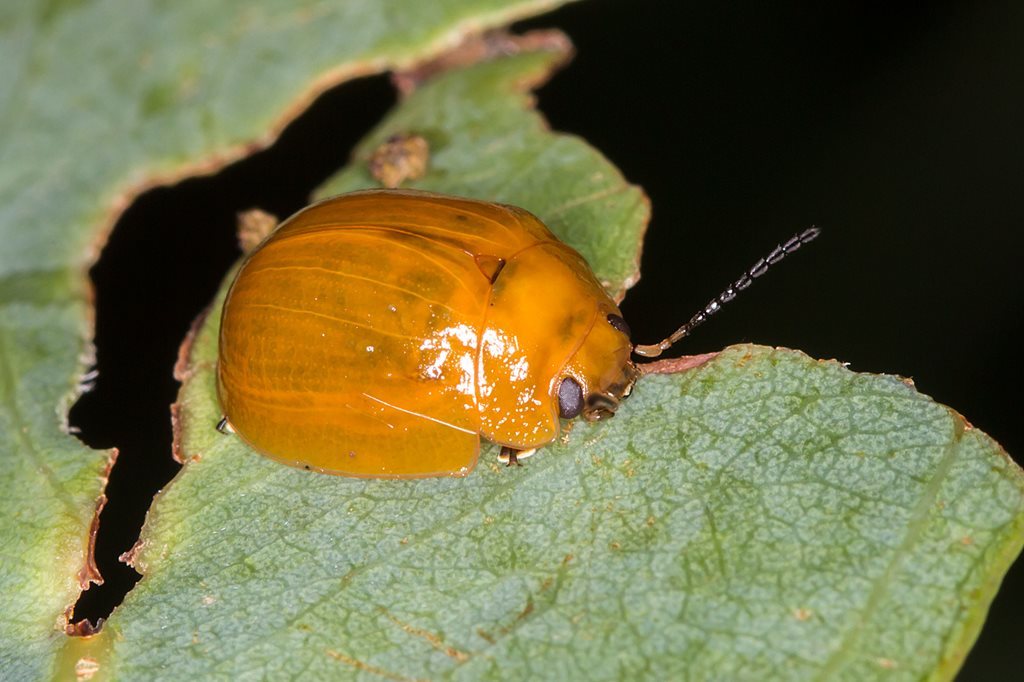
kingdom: Animalia
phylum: Arthropoda
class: Insecta
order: Coleoptera
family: Chrysomelidae
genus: Paropsisterna
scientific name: Paropsisterna cloelia
